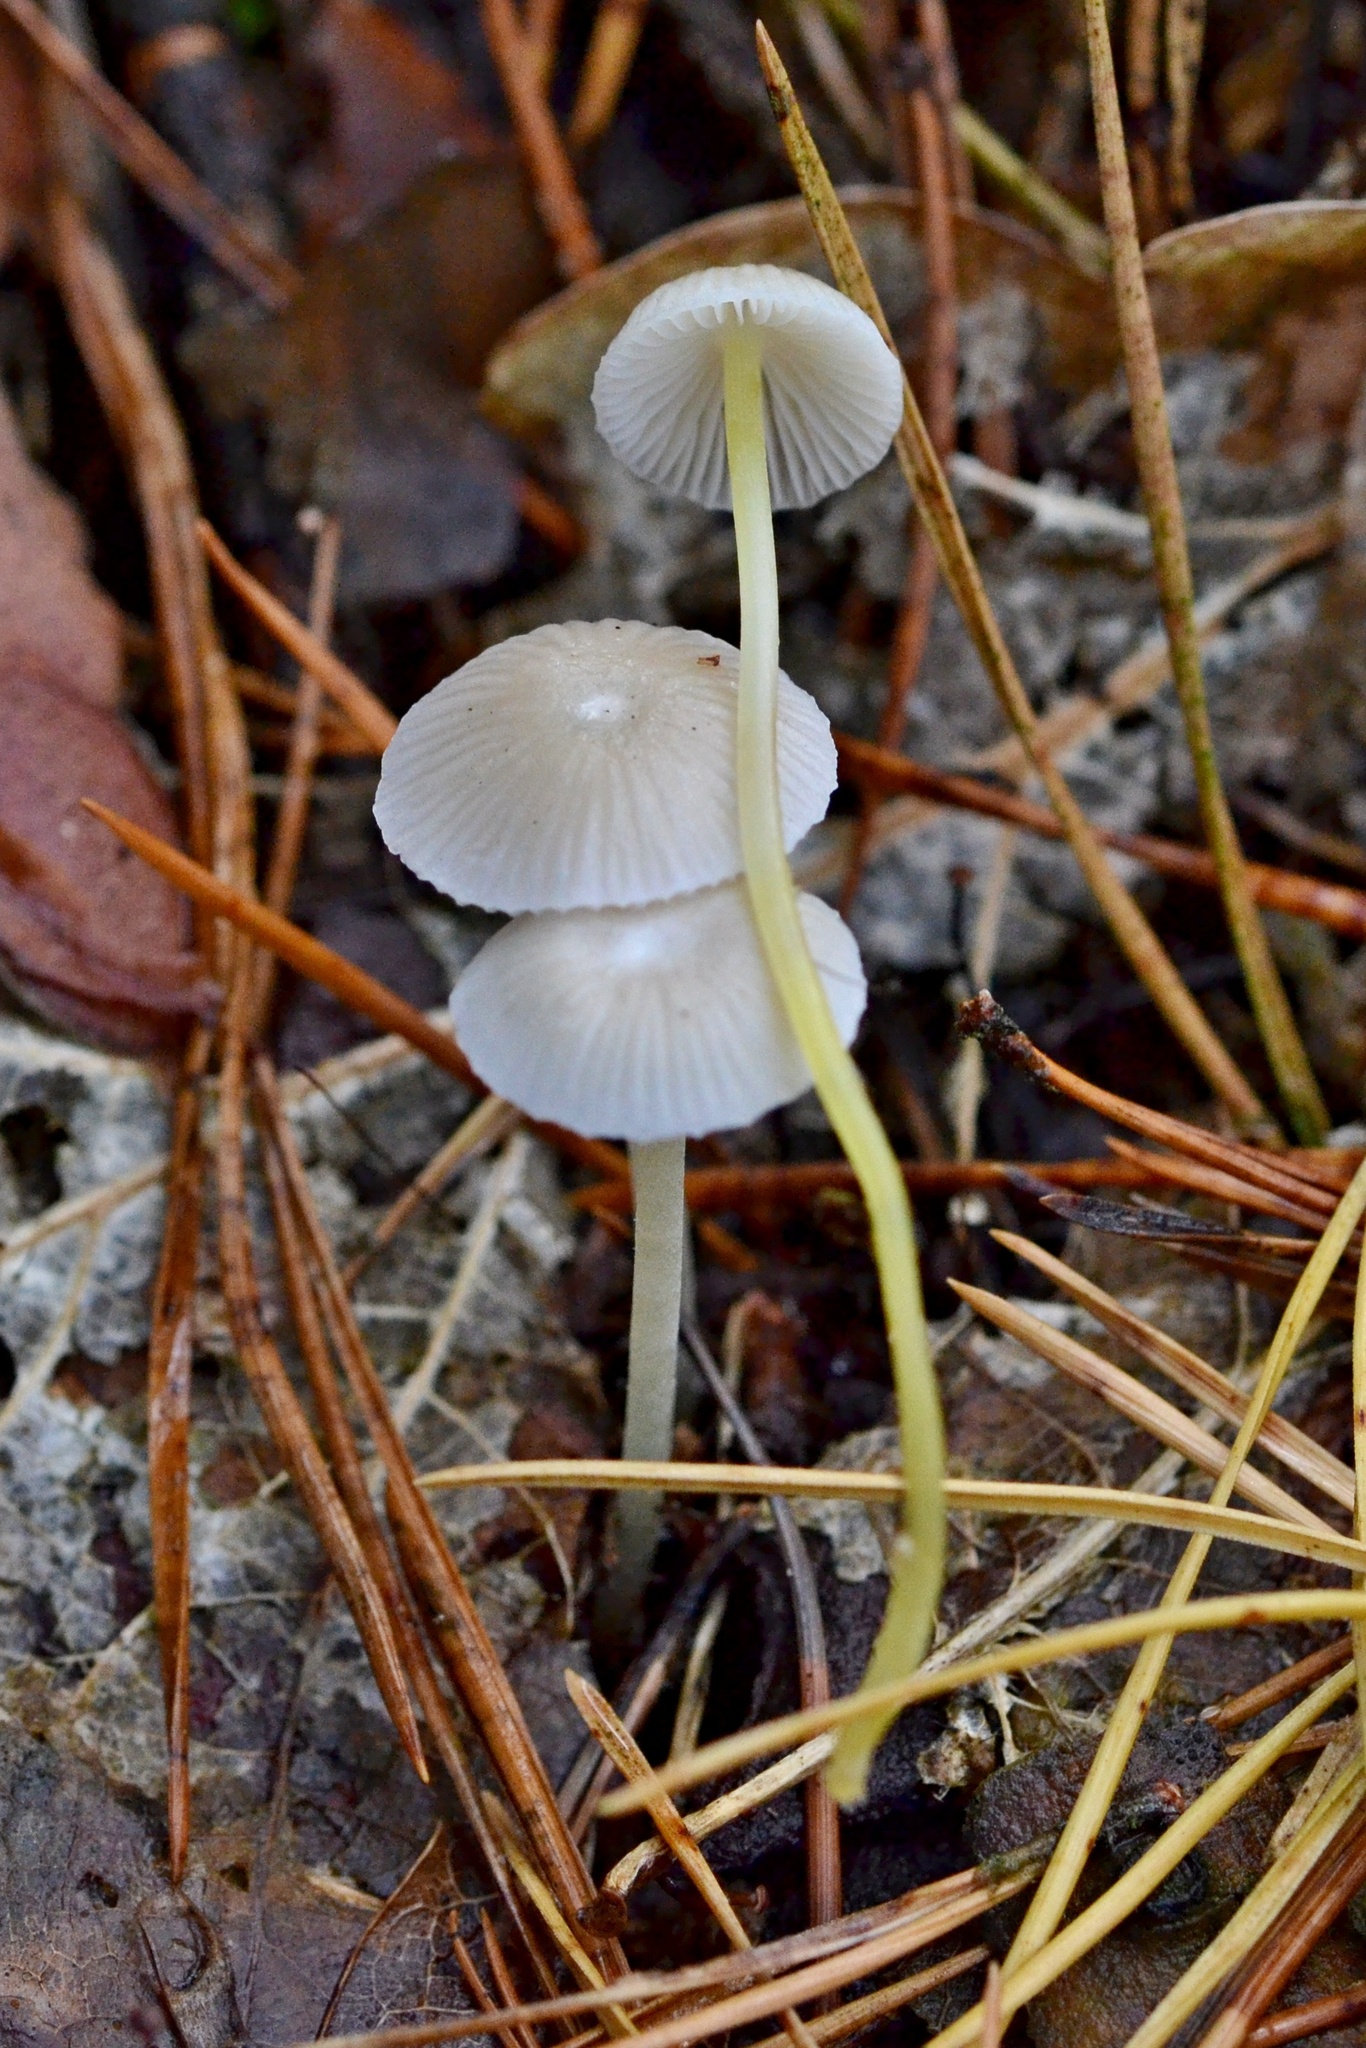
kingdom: Fungi
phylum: Basidiomycota
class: Agaricomycetes
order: Agaricales
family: Mycenaceae
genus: Mycena
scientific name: Mycena epipterygia
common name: Yellowleg bonnet
